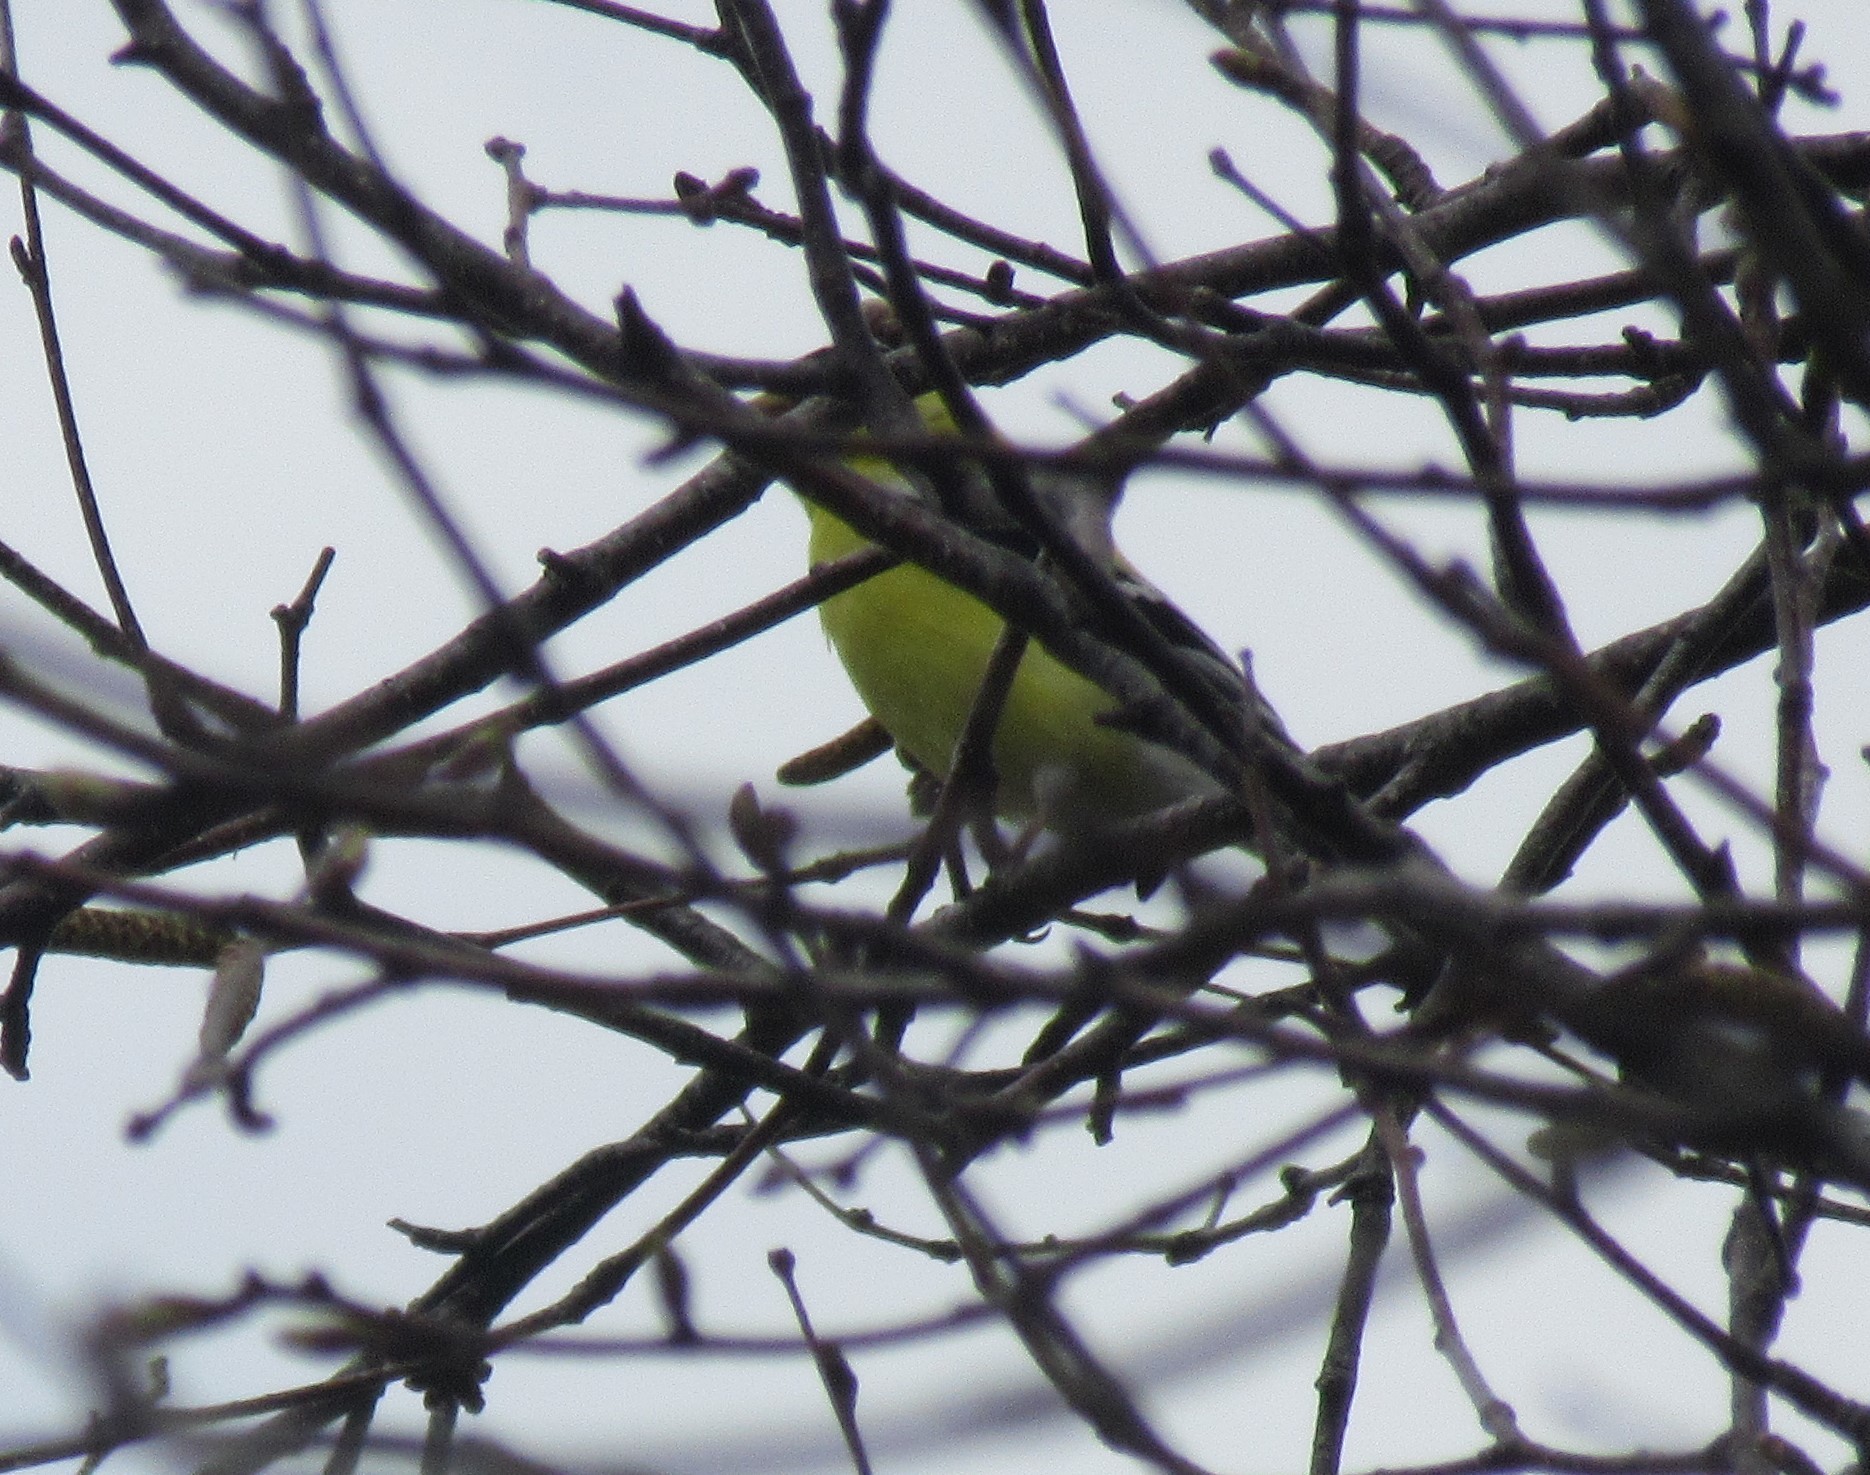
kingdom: Animalia
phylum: Chordata
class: Aves
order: Passeriformes
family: Fringillidae
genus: Spinus
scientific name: Spinus tristis
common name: American goldfinch
